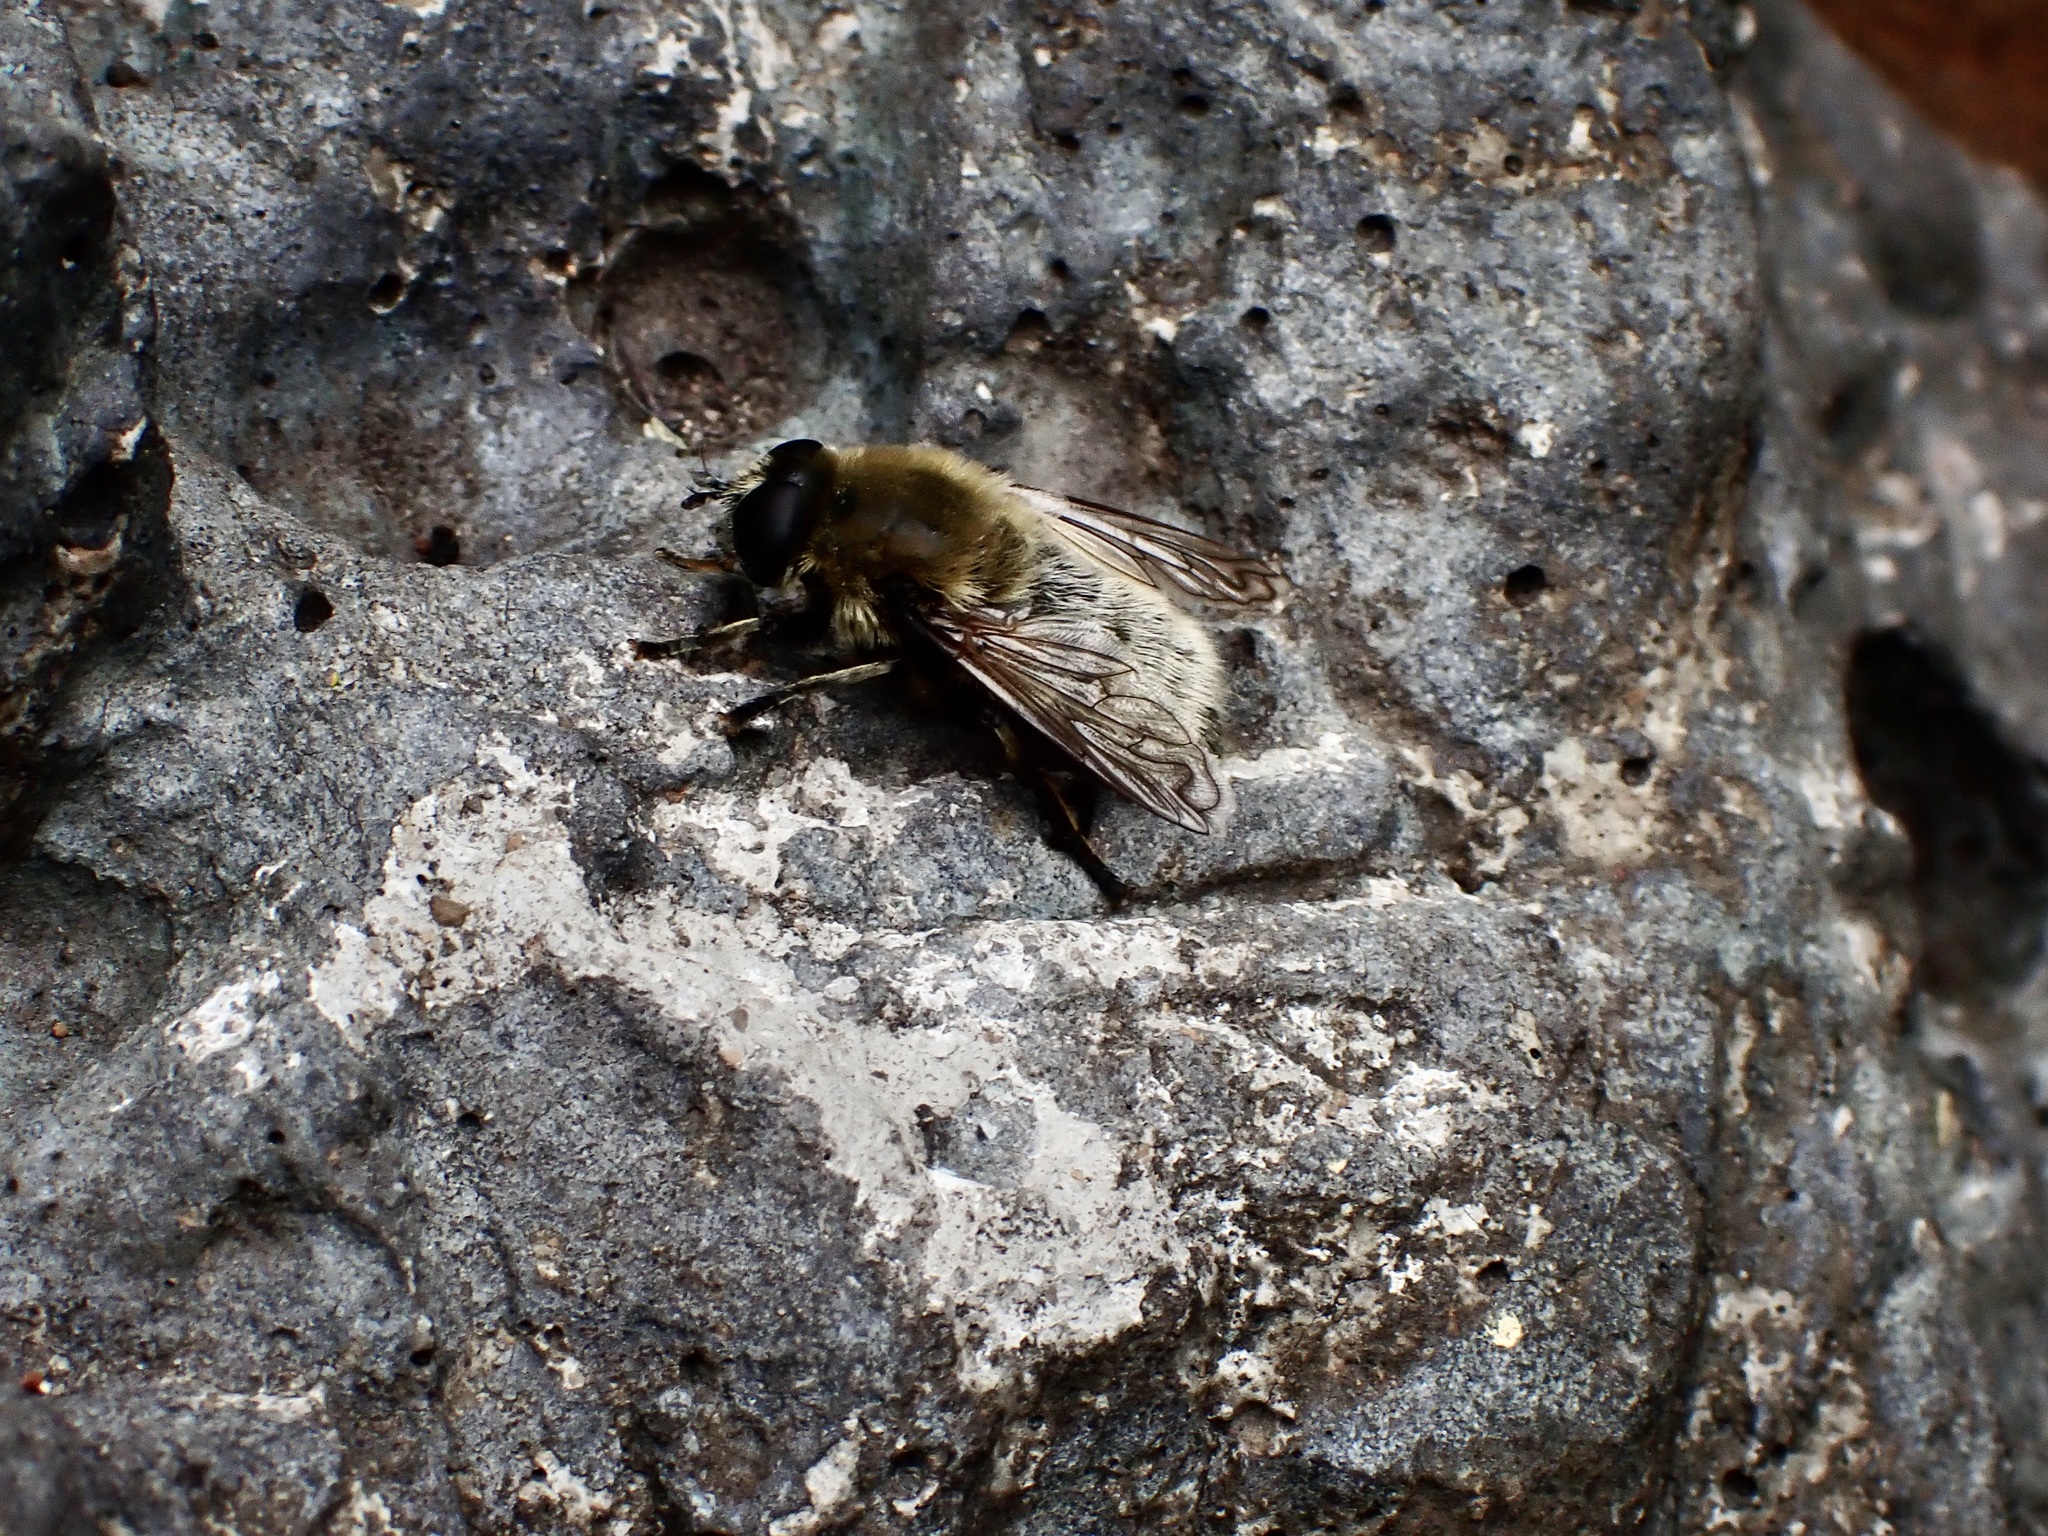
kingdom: Animalia
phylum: Arthropoda
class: Insecta
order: Diptera
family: Syrphidae
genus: Merodon
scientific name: Merodon equestris
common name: Greater bulb-fly
